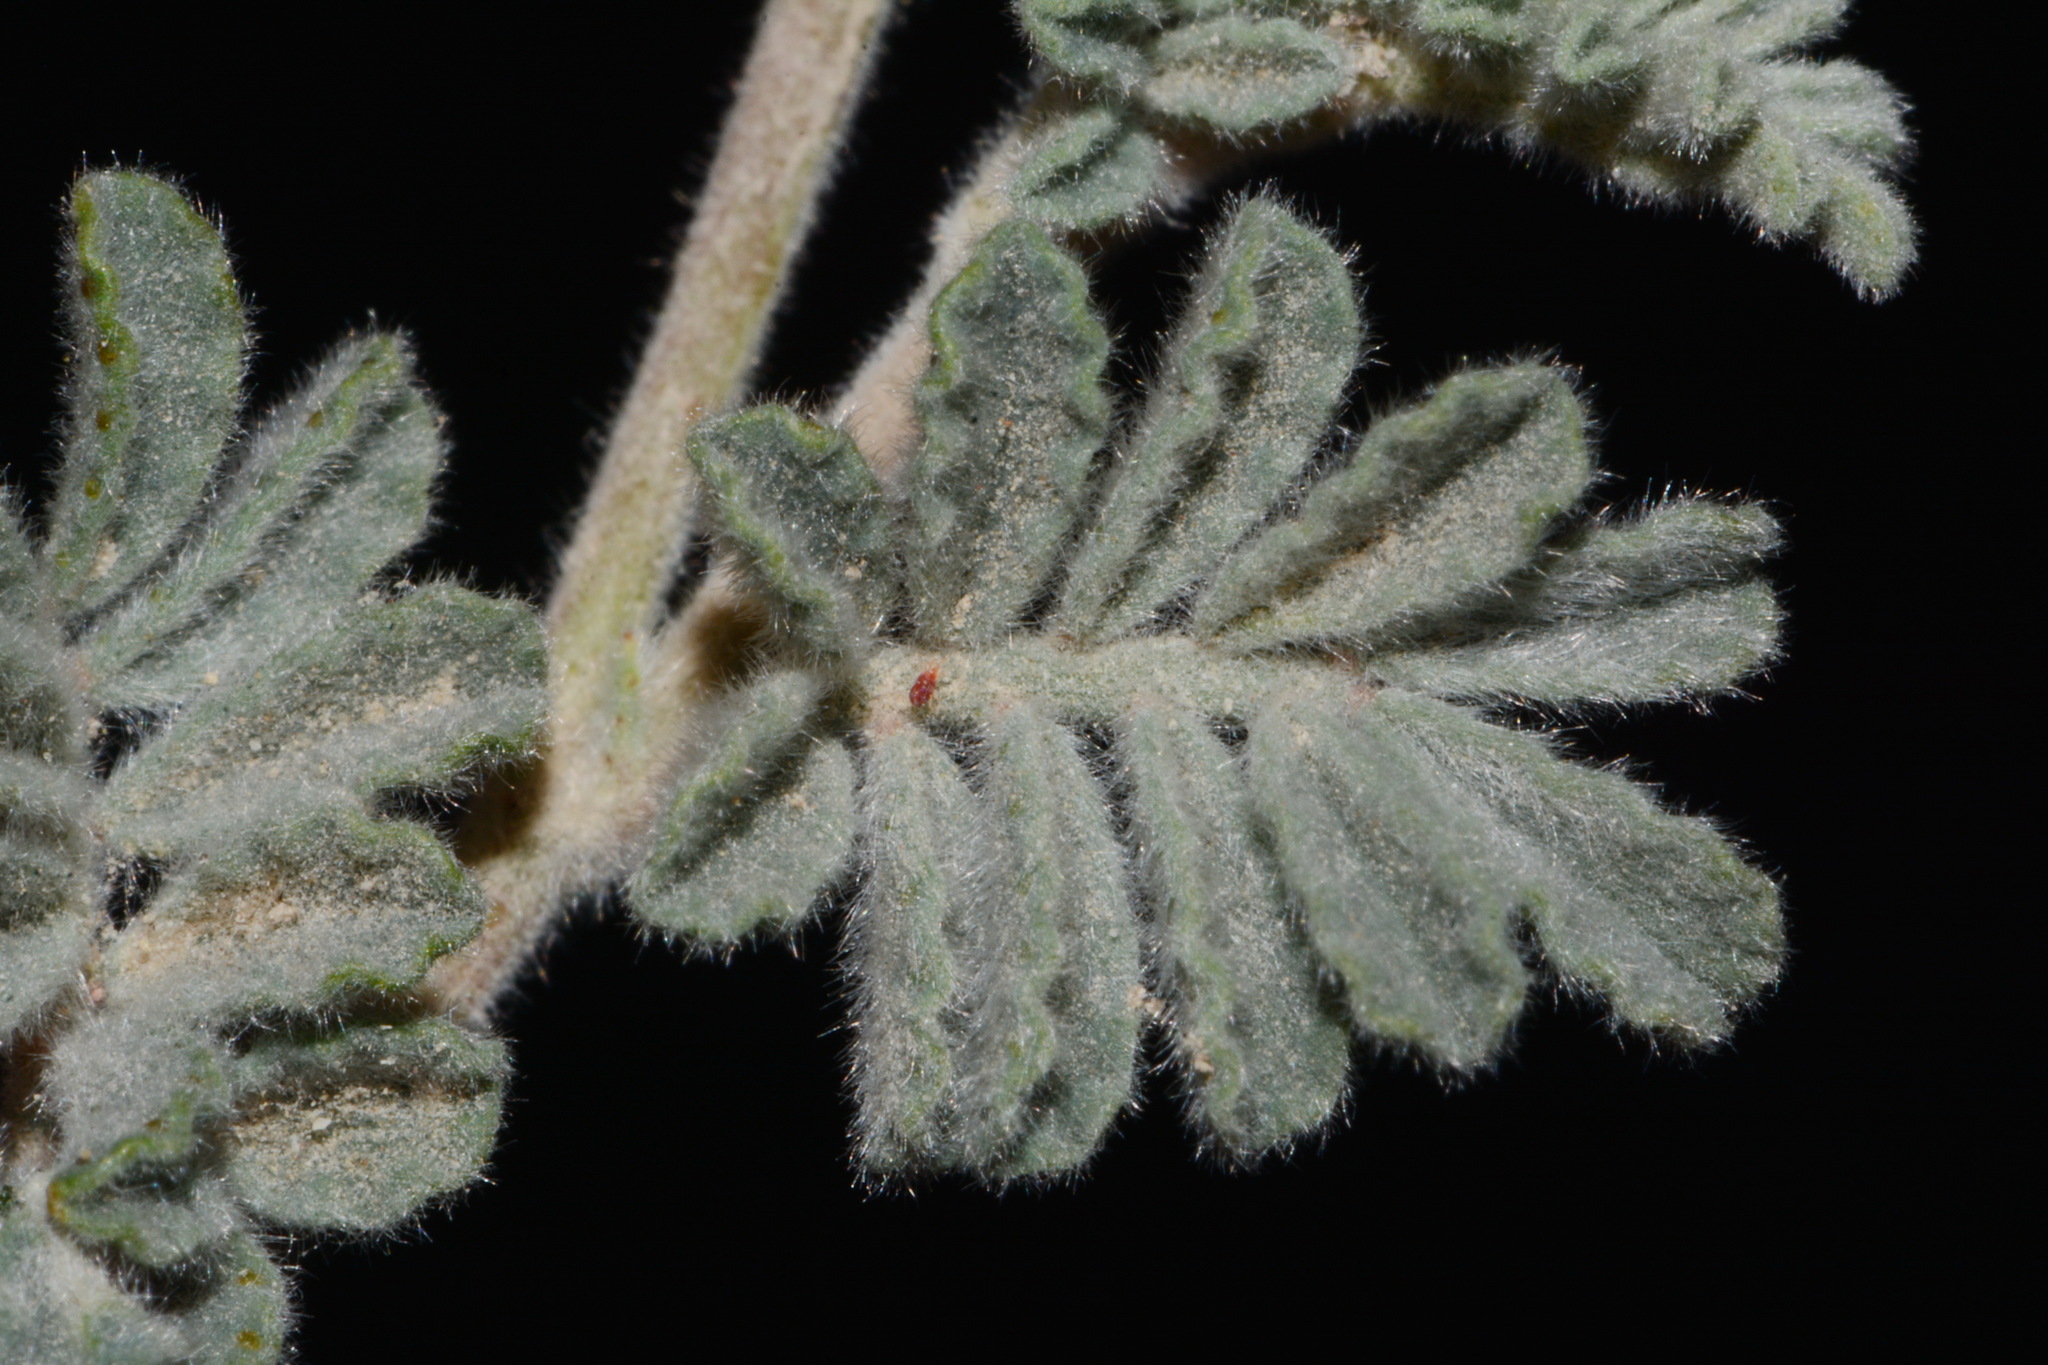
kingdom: Plantae
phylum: Tracheophyta
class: Magnoliopsida
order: Fabales
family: Fabaceae
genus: Dalea
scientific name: Dalea neomexicana
